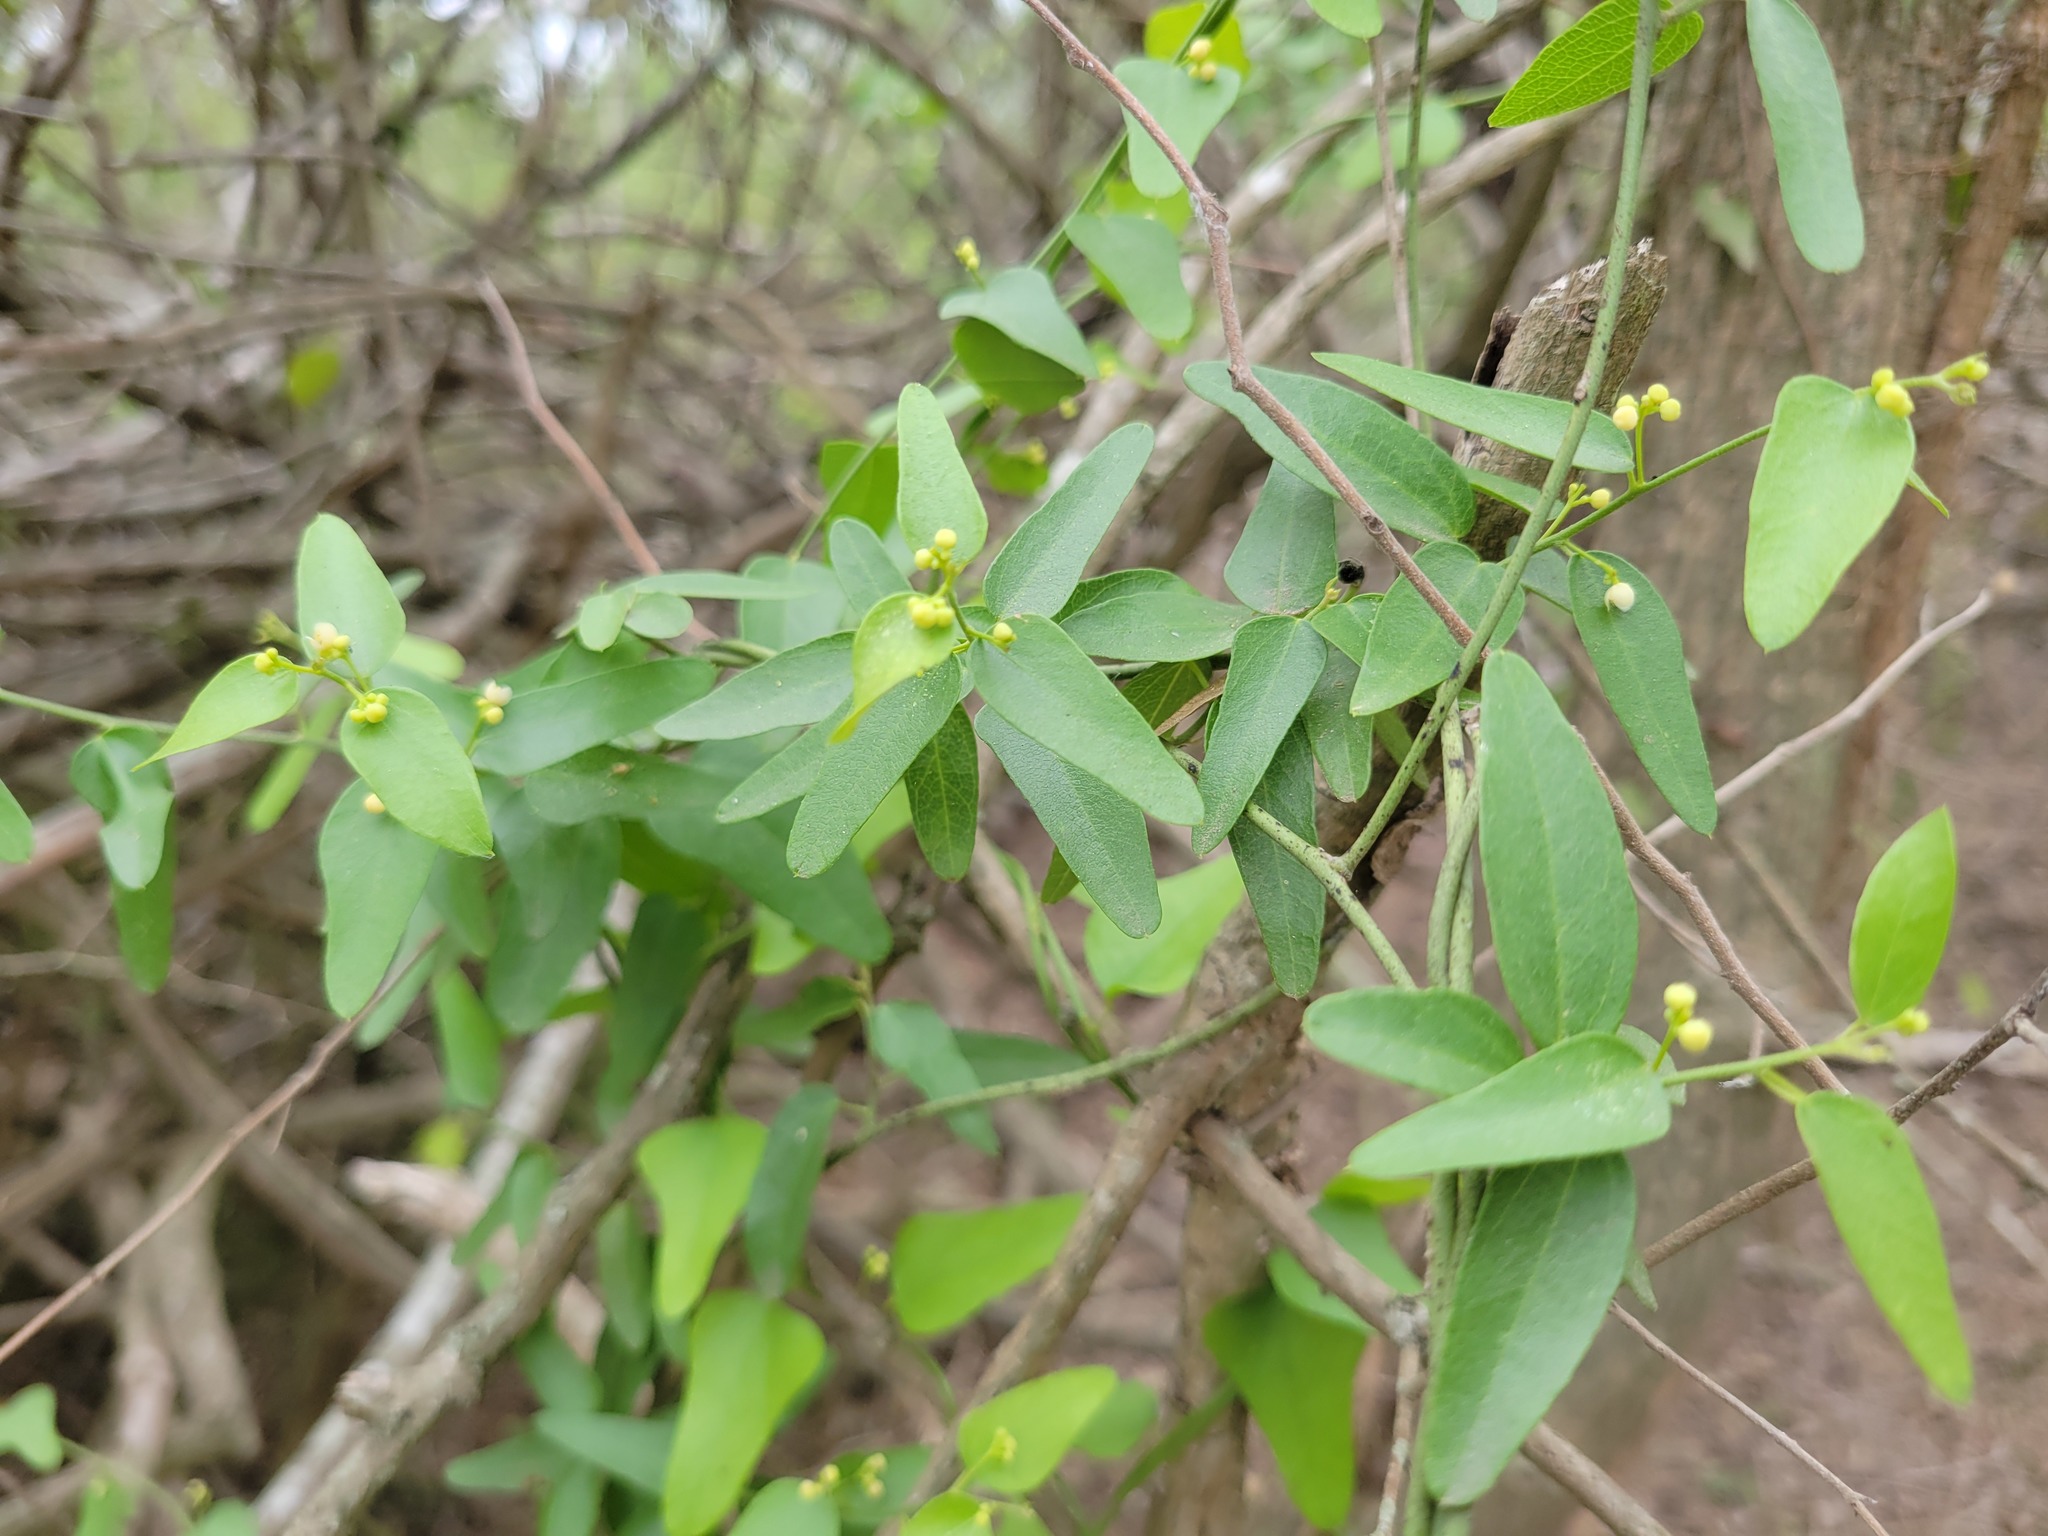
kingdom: Plantae
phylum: Tracheophyta
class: Magnoliopsida
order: Ranunculales
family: Menispermaceae
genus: Cocculus
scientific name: Cocculus diversifolius
